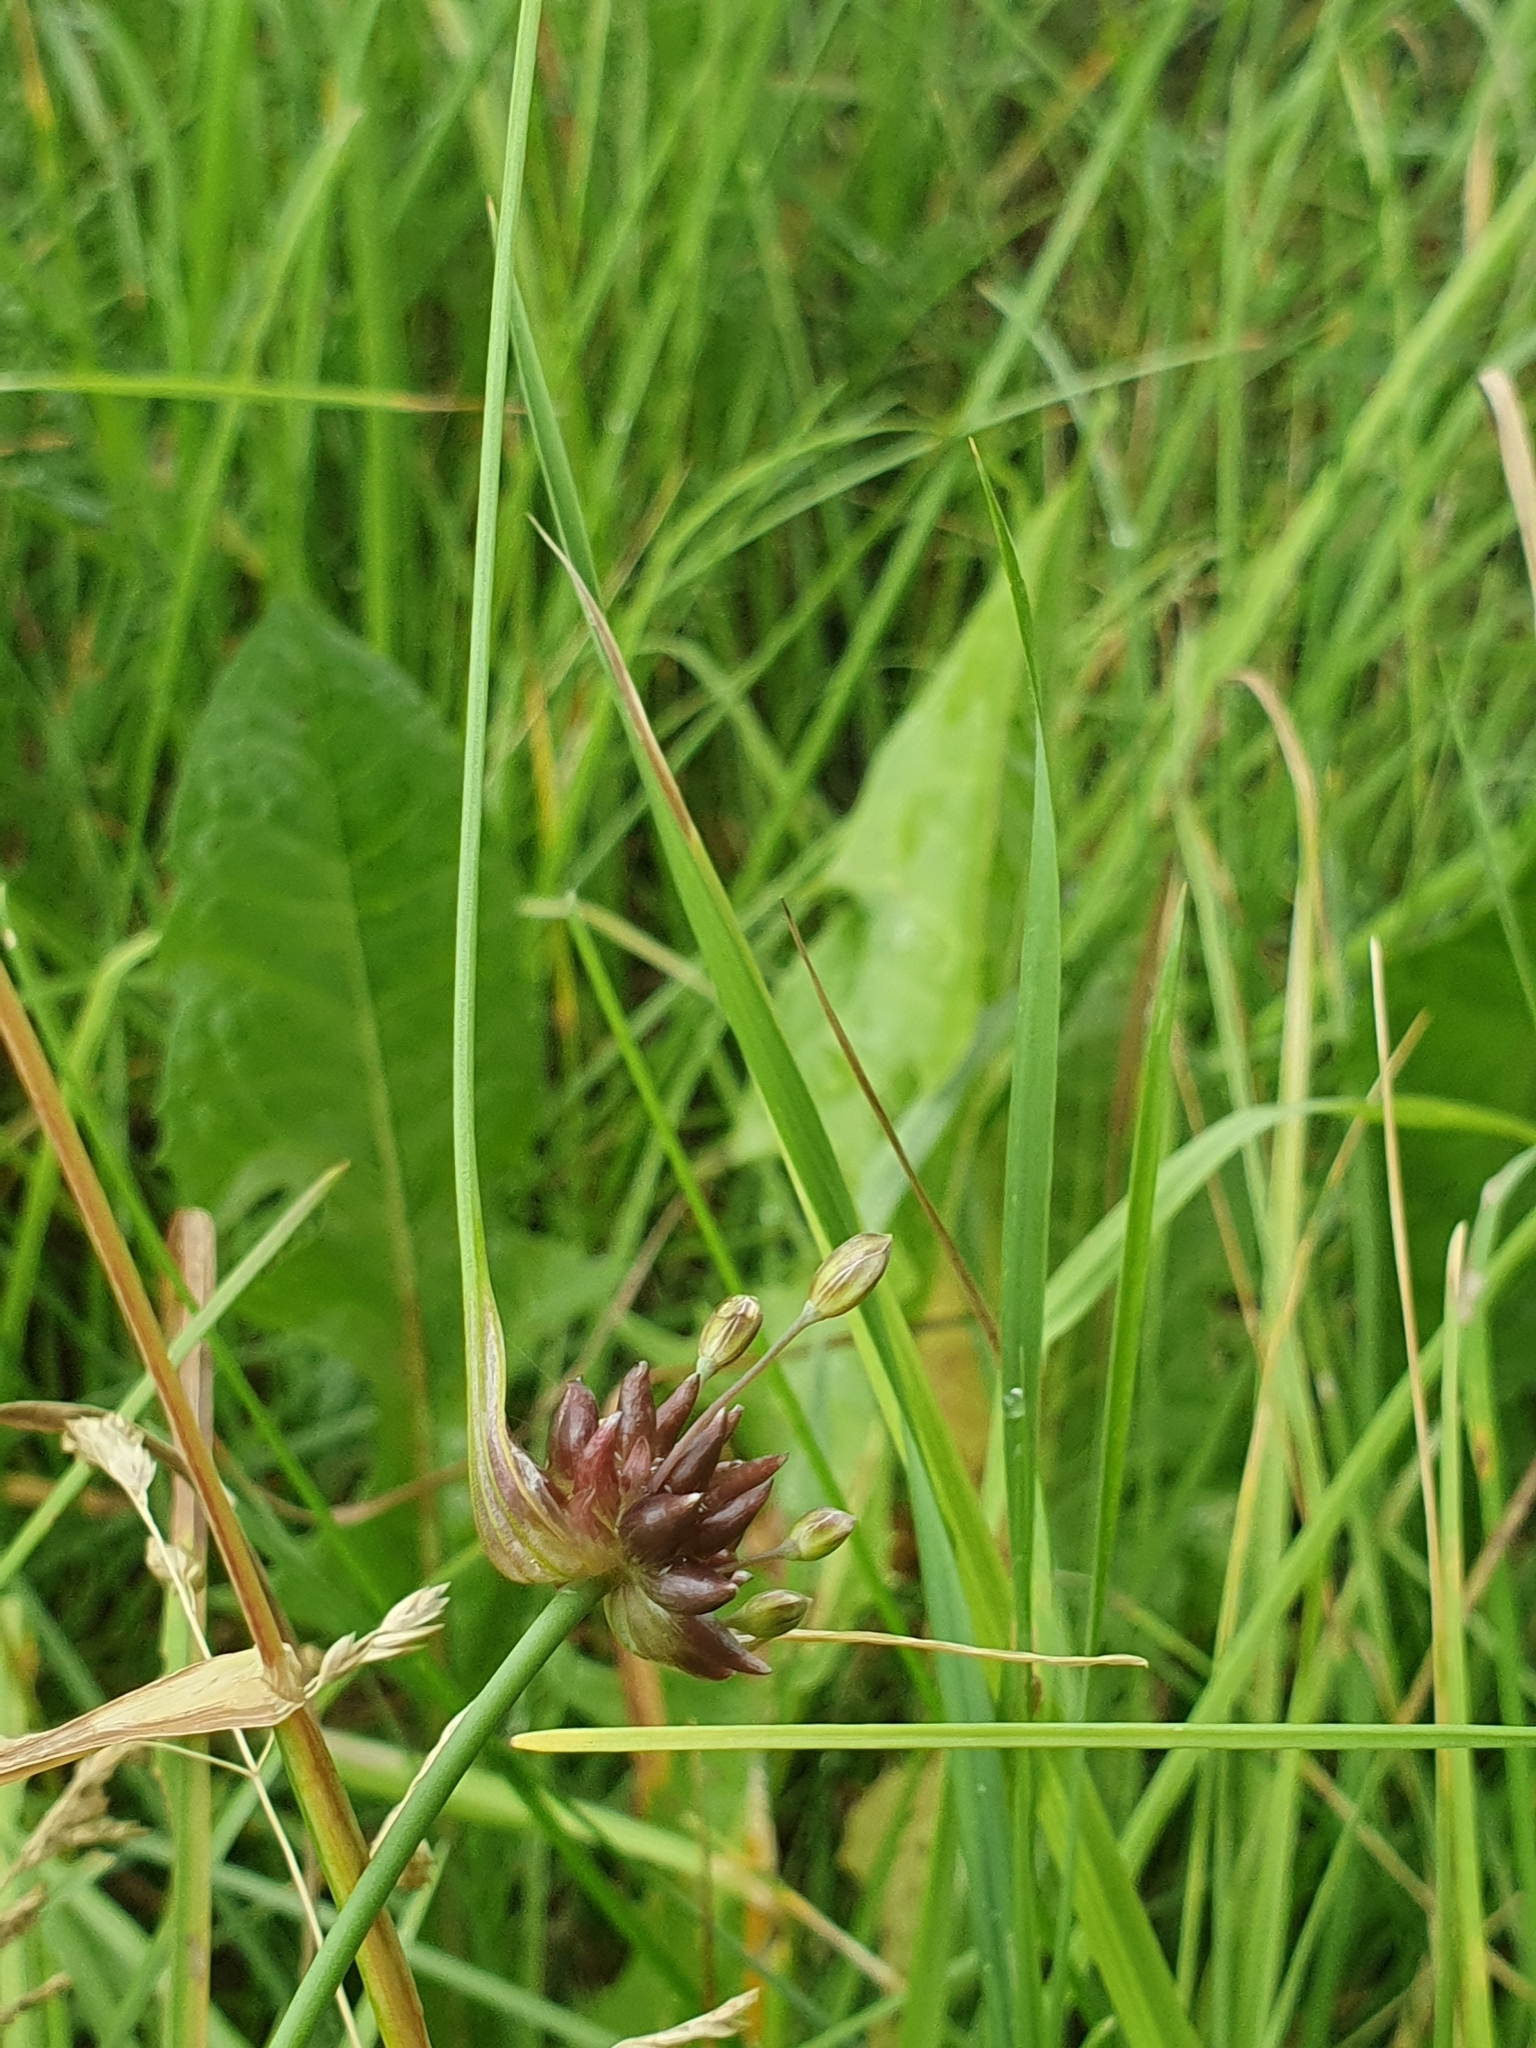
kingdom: Plantae
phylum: Tracheophyta
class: Liliopsida
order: Asparagales
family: Amaryllidaceae
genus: Allium
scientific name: Allium oleraceum
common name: Field garlic
